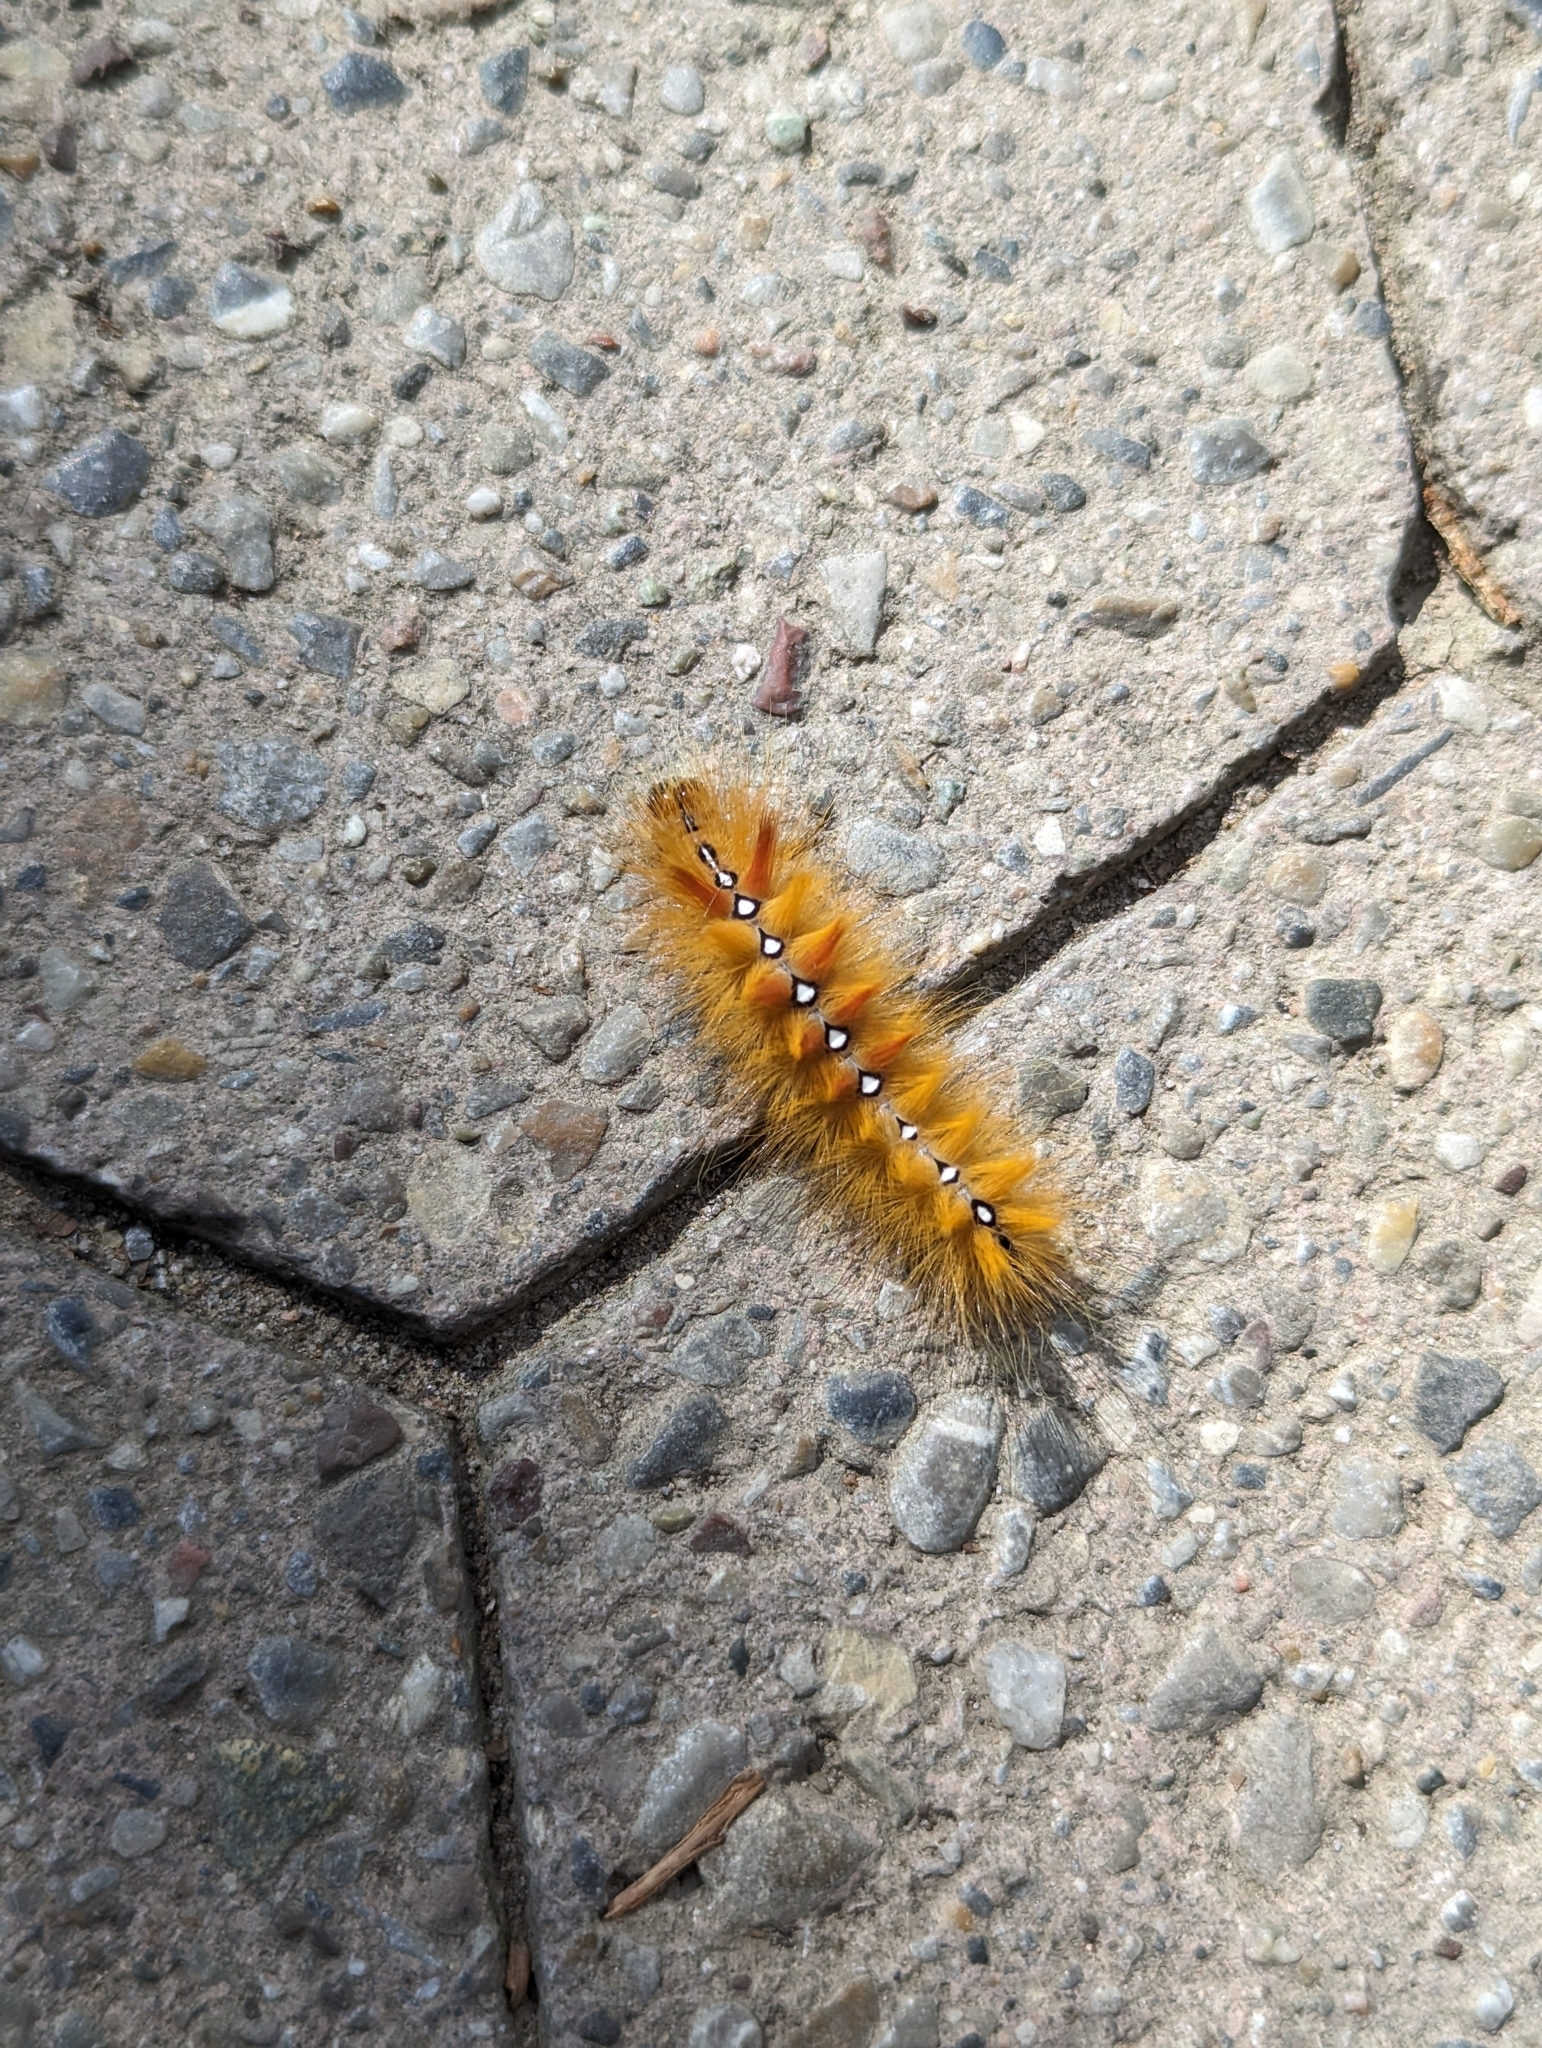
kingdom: Animalia
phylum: Arthropoda
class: Insecta
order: Lepidoptera
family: Noctuidae
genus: Acronicta
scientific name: Acronicta aceris
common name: Sycamore
